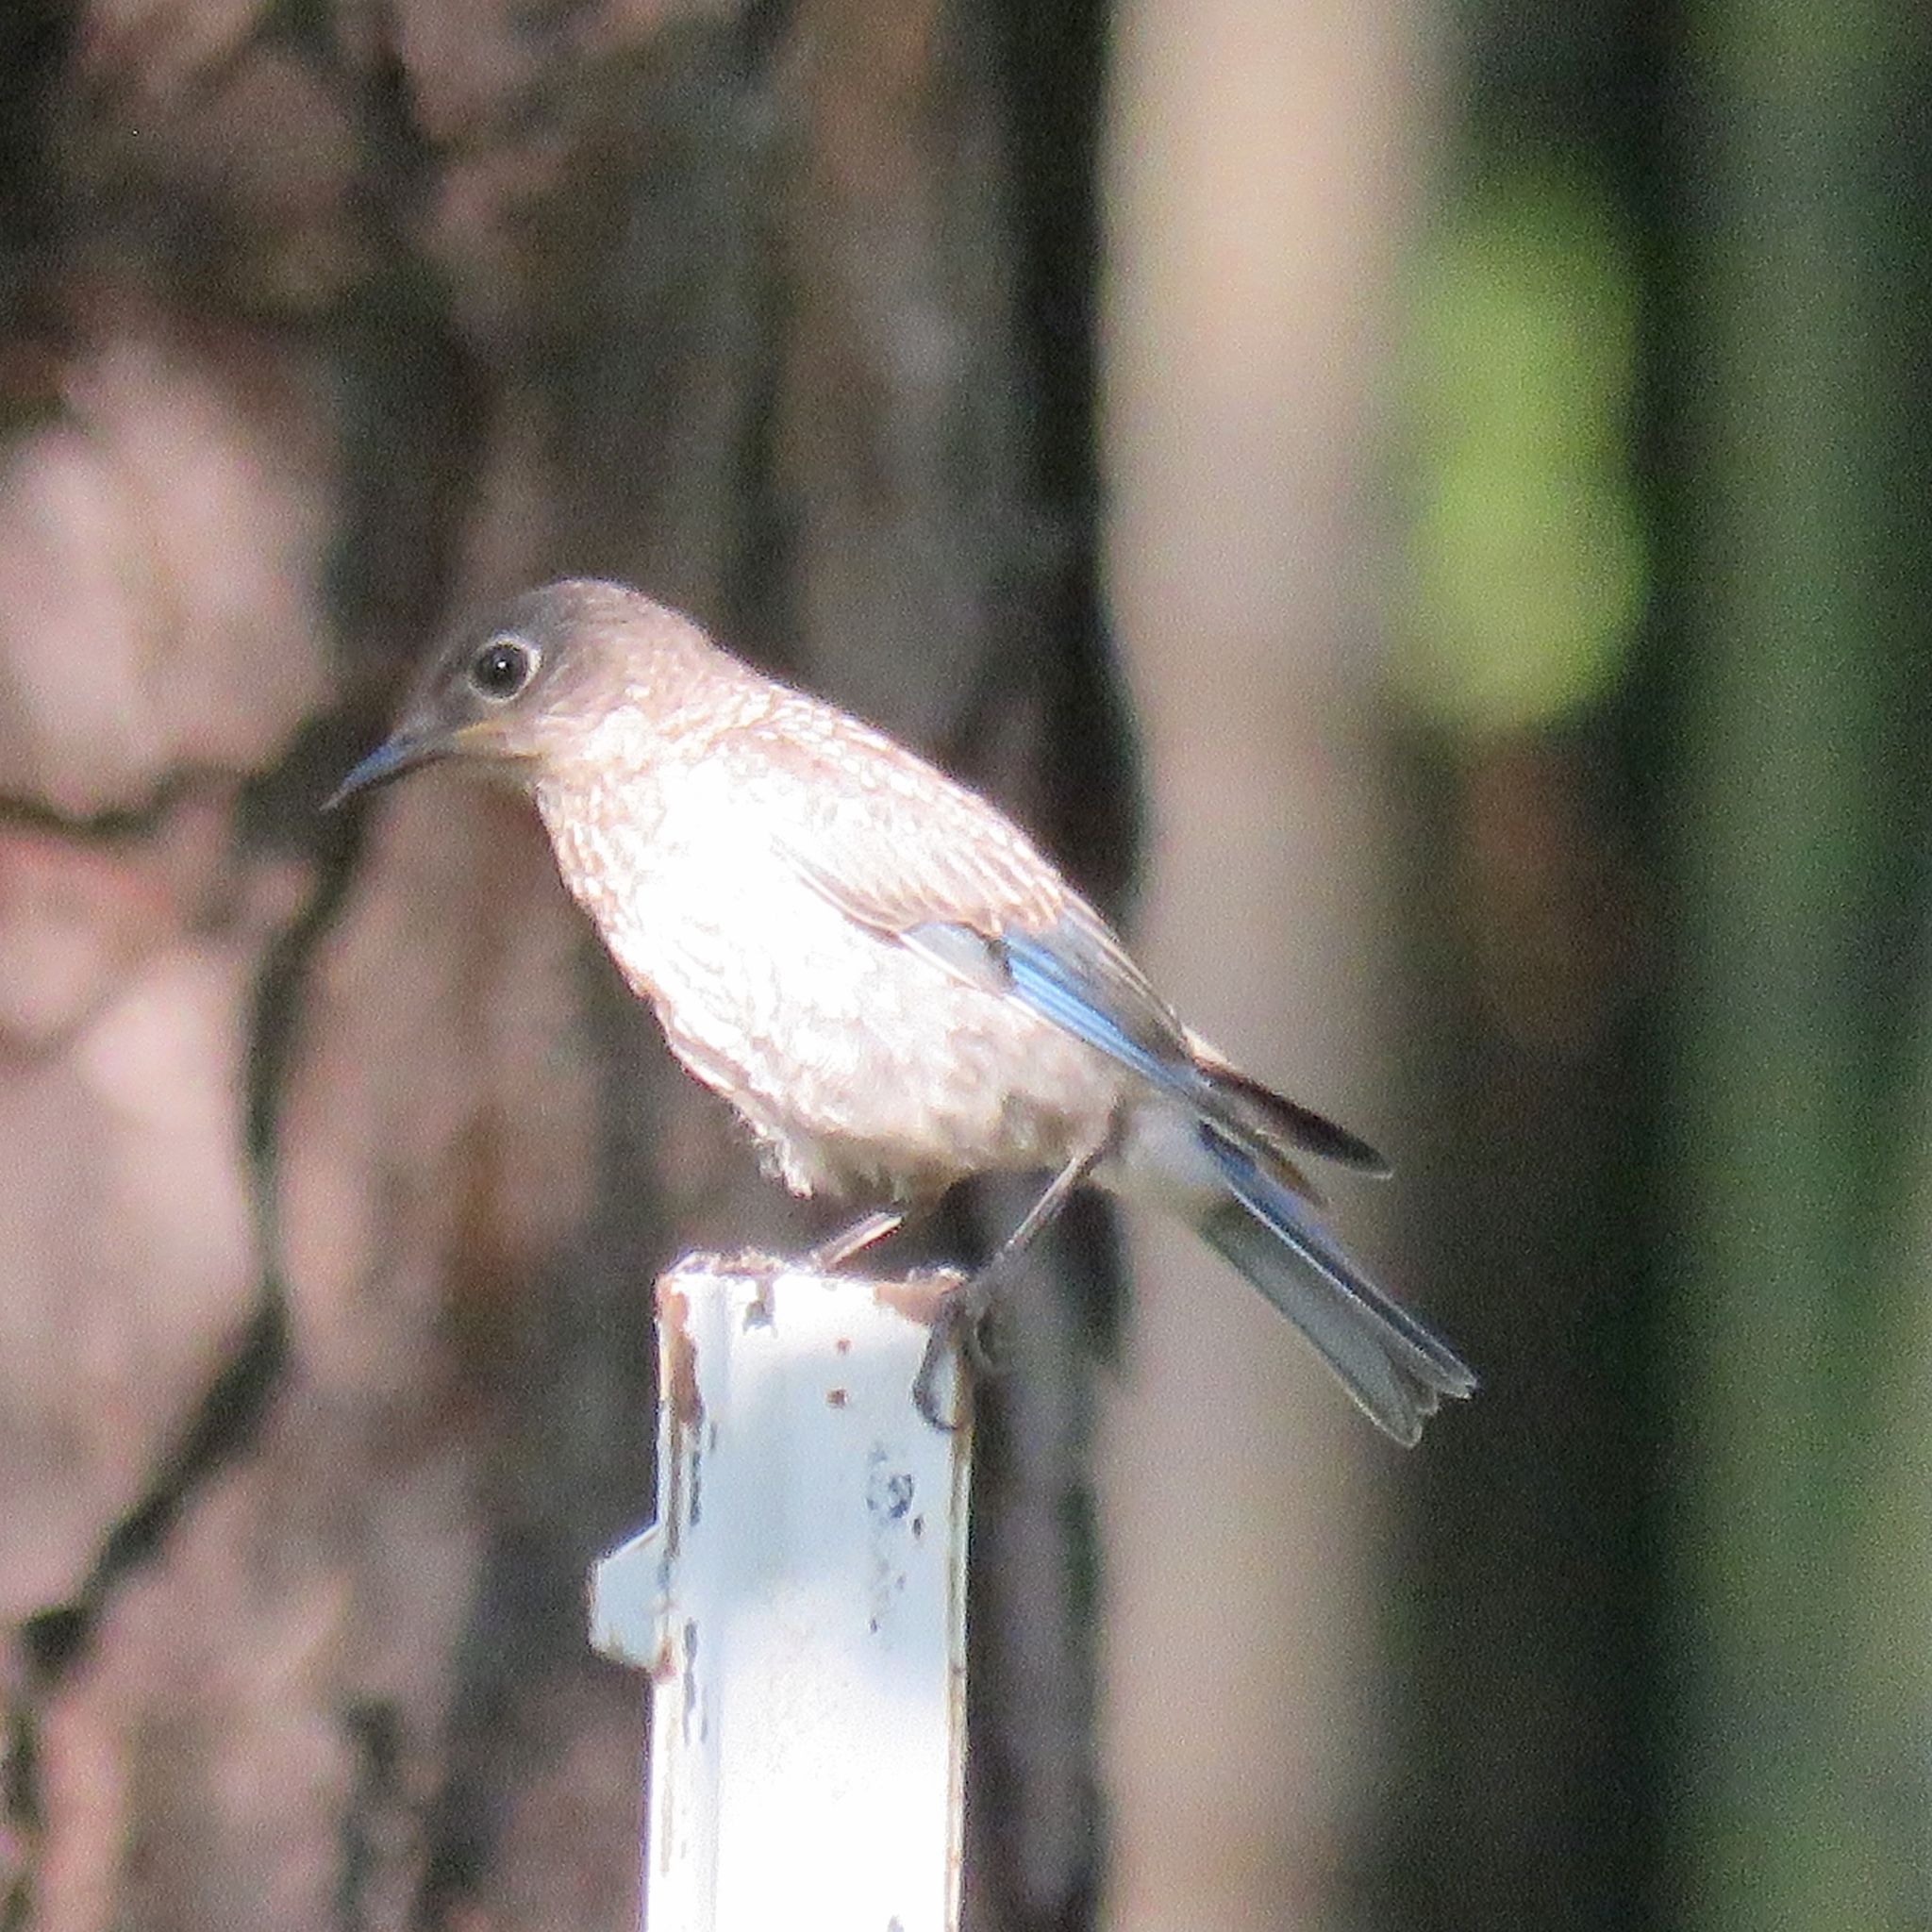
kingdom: Animalia
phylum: Chordata
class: Aves
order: Passeriformes
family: Turdidae
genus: Sialia
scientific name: Sialia sialis
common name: Eastern bluebird
